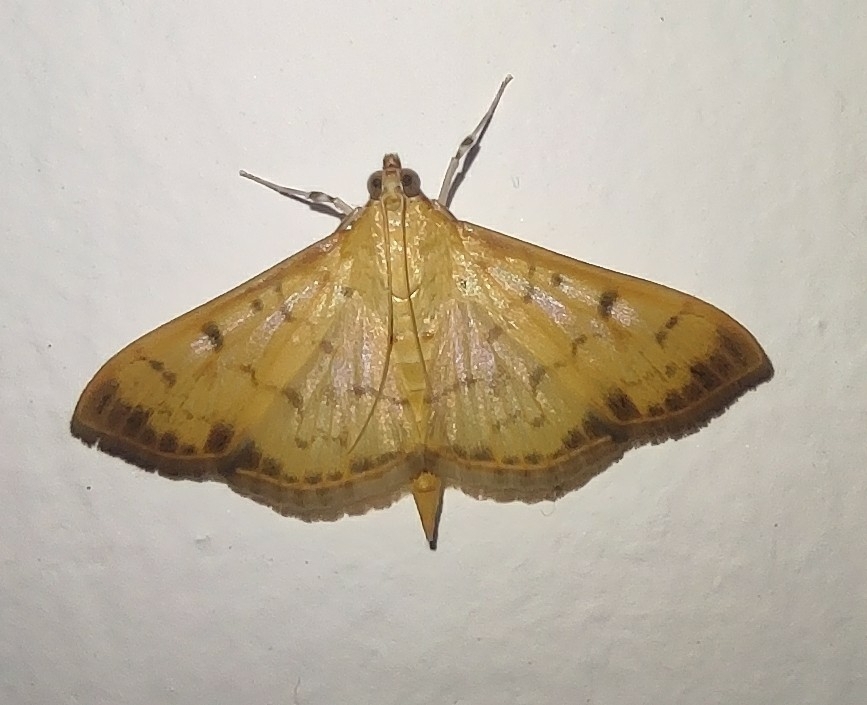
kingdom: Animalia
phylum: Arthropoda
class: Insecta
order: Lepidoptera
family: Crambidae
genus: Pleuroptya
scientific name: Pleuroptya balteata
